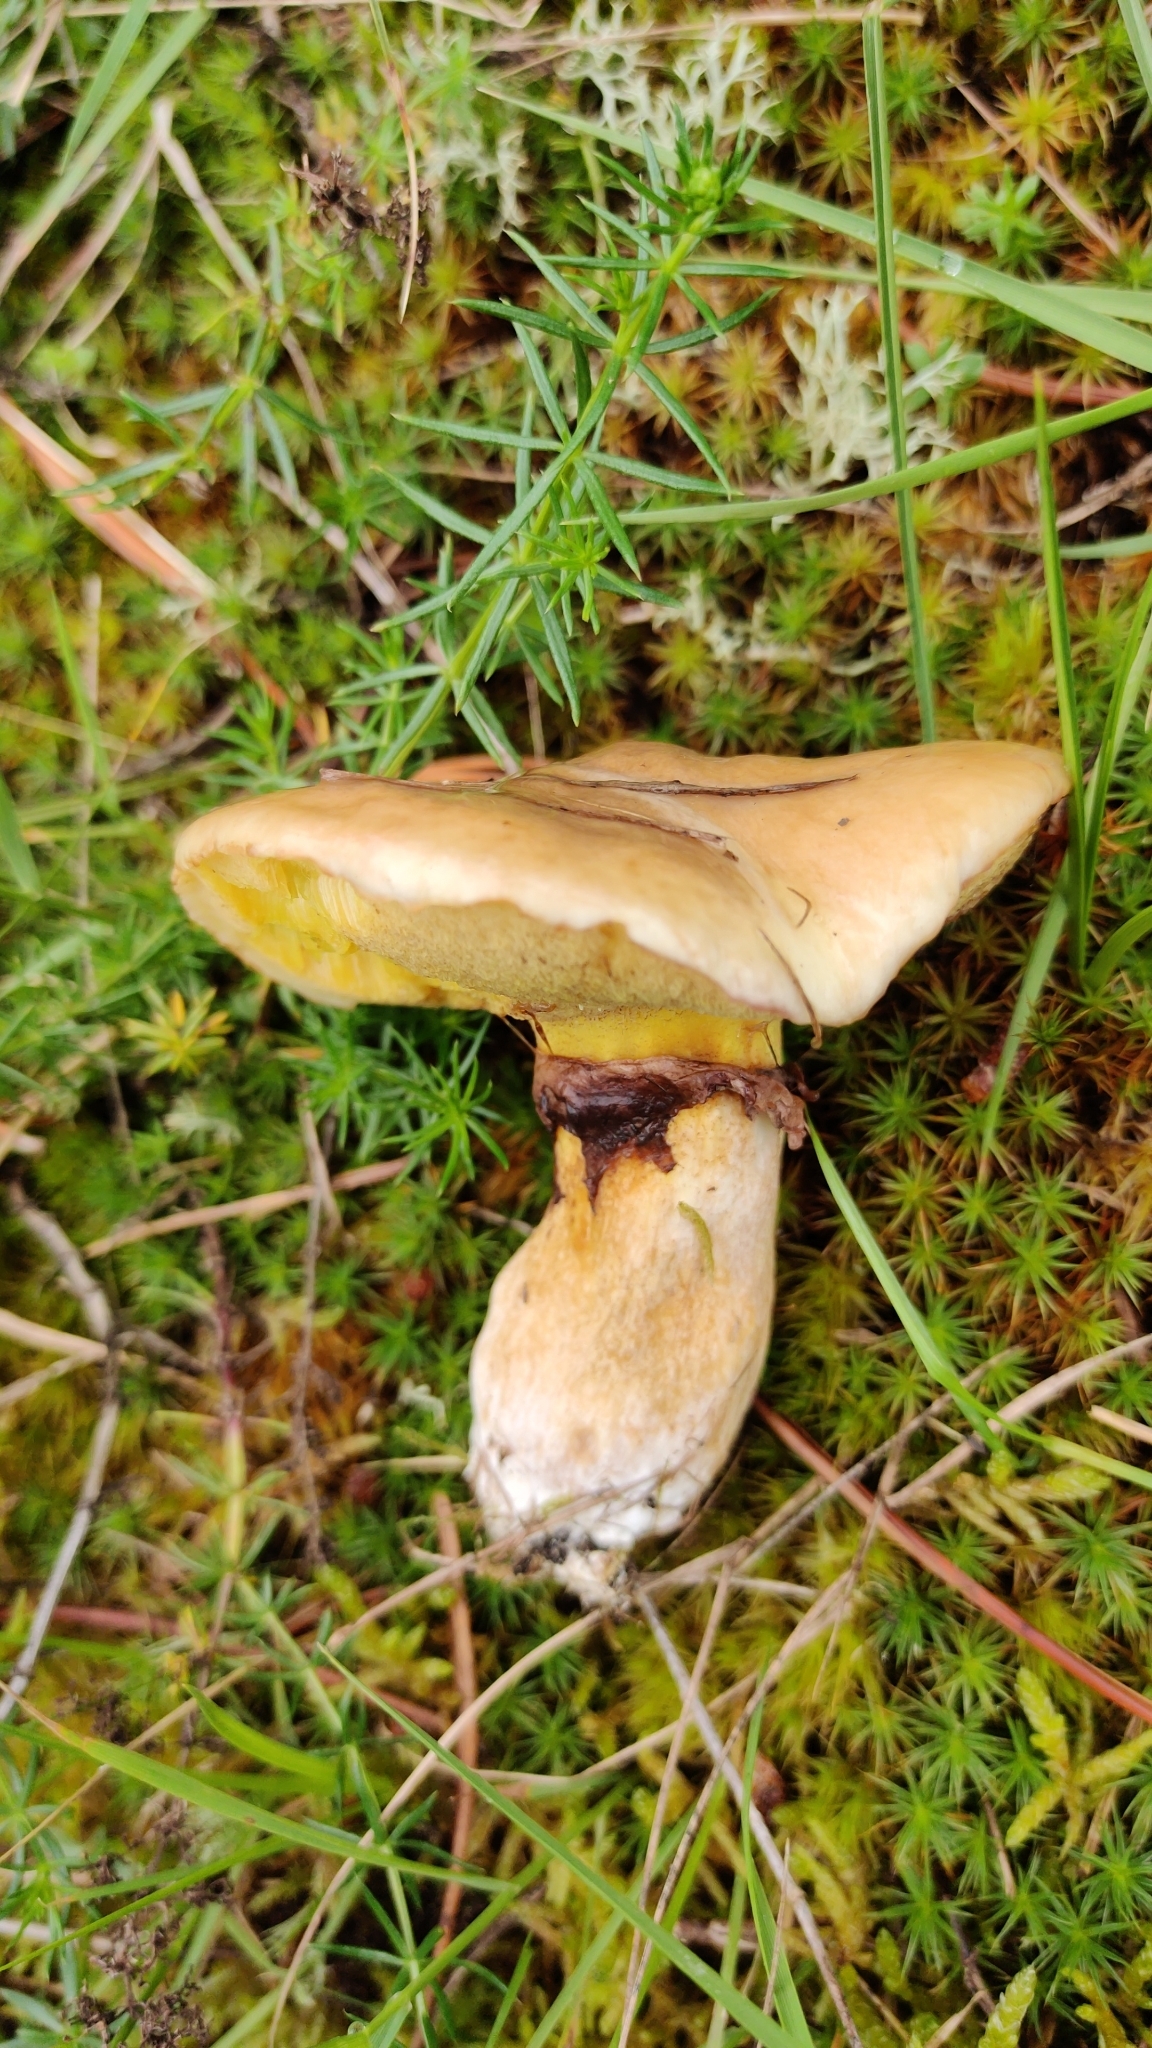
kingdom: Fungi
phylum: Basidiomycota
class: Agaricomycetes
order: Boletales
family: Suillaceae
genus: Suillus
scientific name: Suillus luteus
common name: Slippery jack
